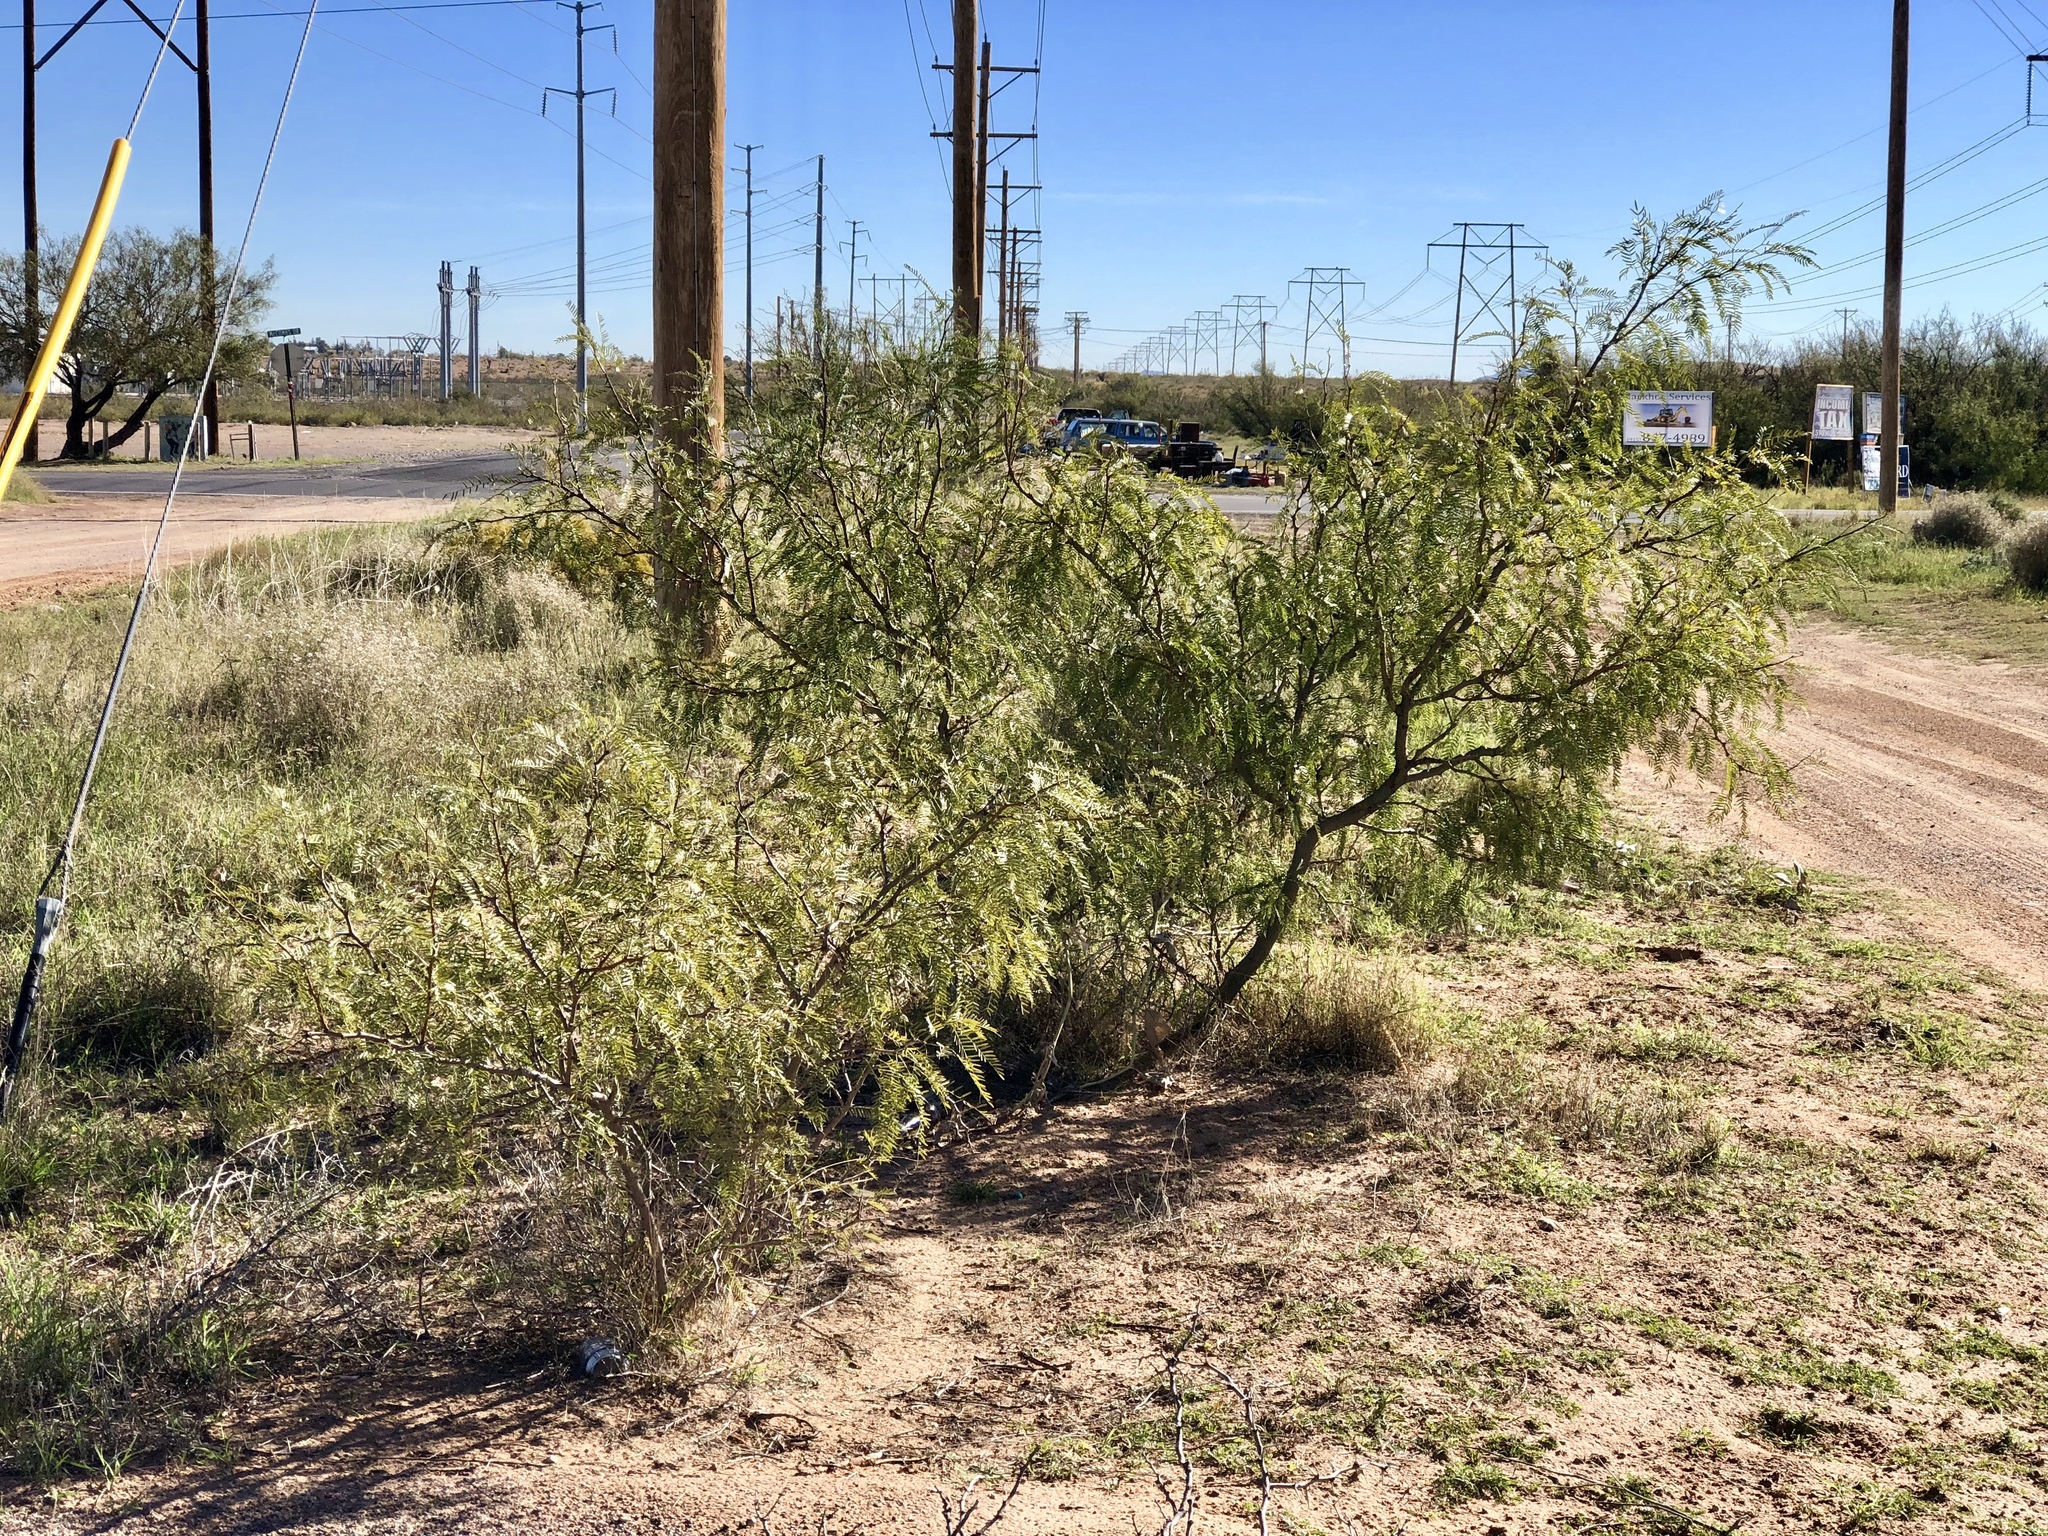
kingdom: Plantae
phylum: Tracheophyta
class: Magnoliopsida
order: Fabales
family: Fabaceae
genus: Prosopis
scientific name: Prosopis glandulosa
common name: Honey mesquite
